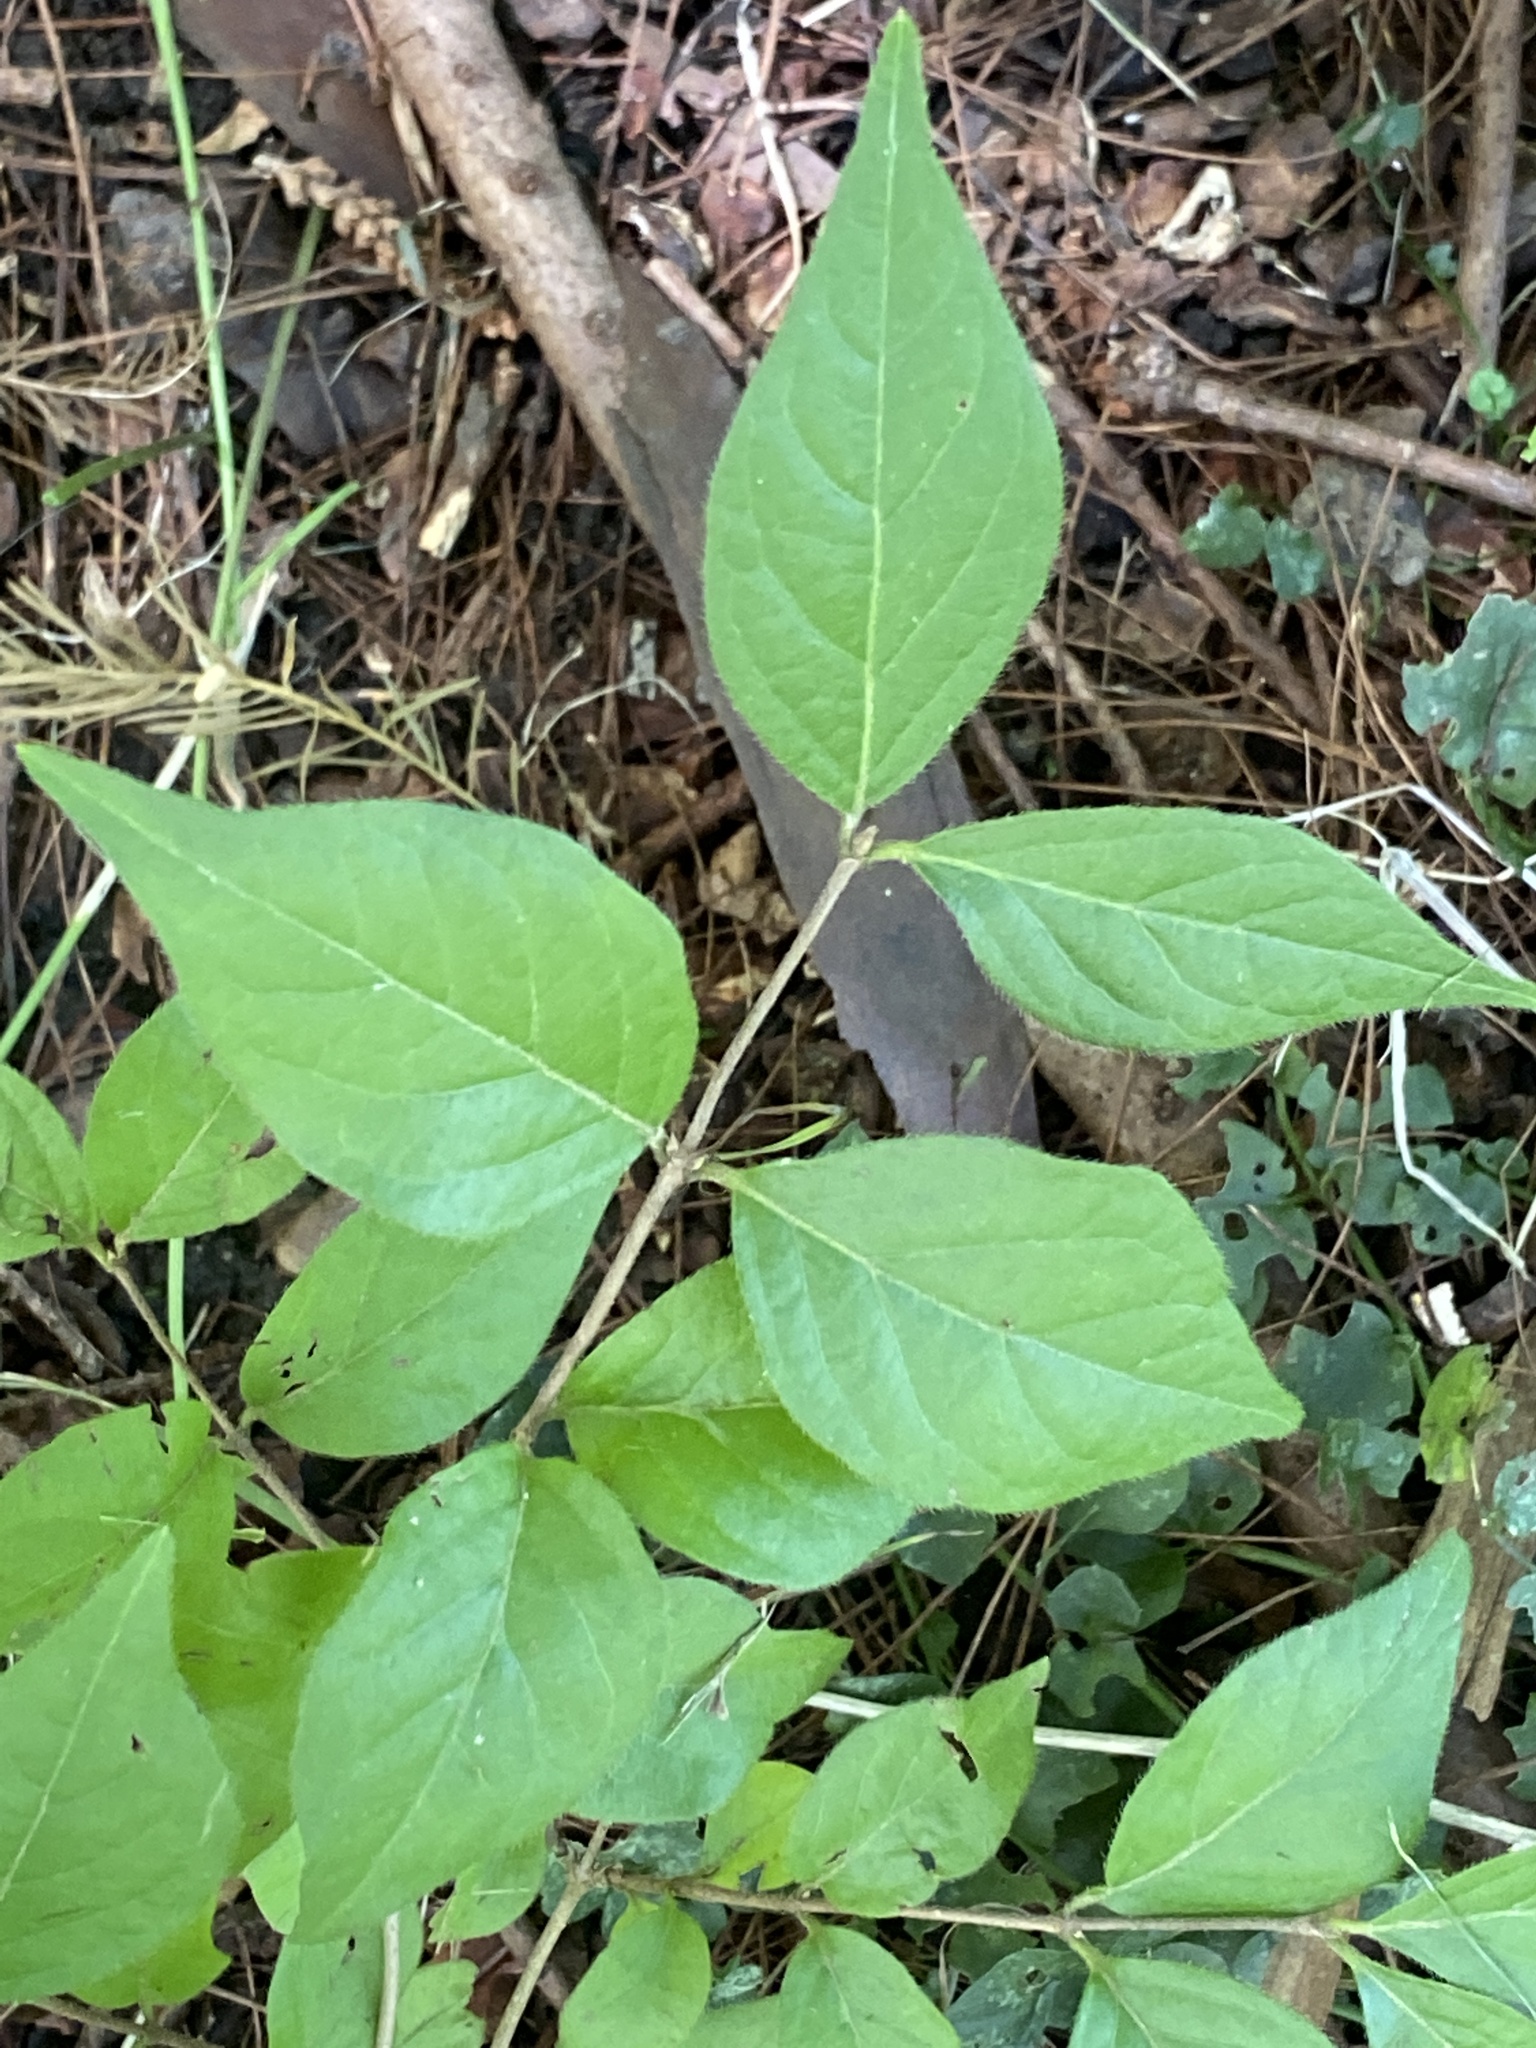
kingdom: Plantae
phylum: Tracheophyta
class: Magnoliopsida
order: Dipsacales
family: Caprifoliaceae
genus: Lonicera
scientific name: Lonicera maackii
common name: Amur honeysuckle
